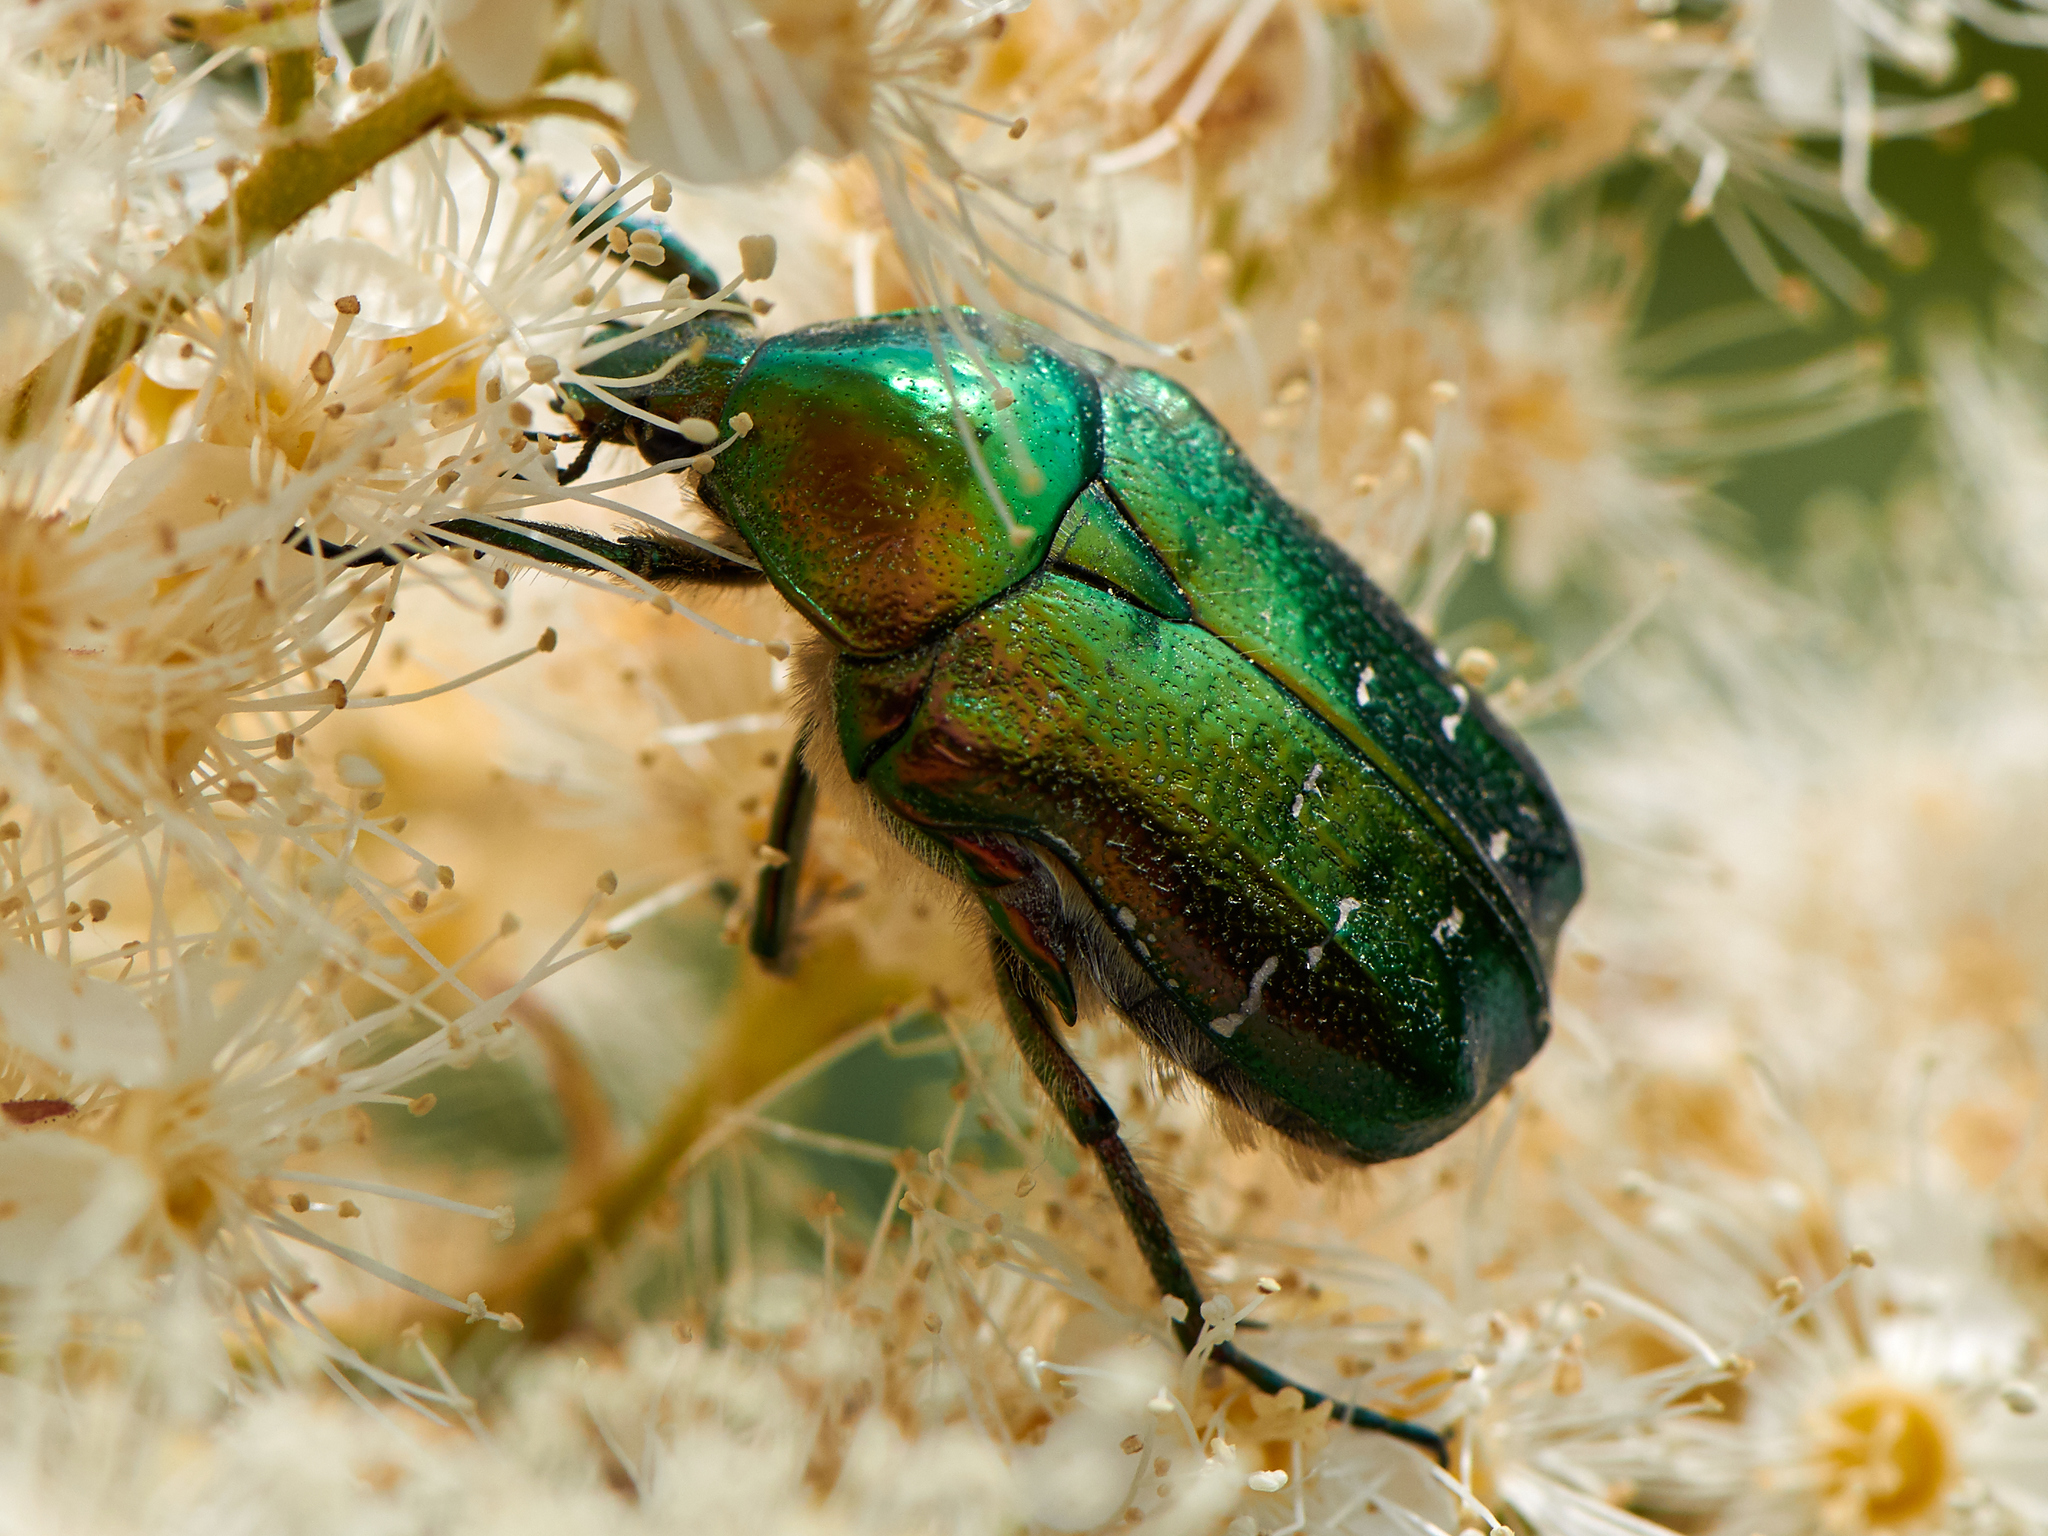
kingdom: Animalia
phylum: Arthropoda
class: Insecta
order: Coleoptera
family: Scarabaeidae
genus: Cetonia
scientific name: Cetonia aurata
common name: Rose chafer
